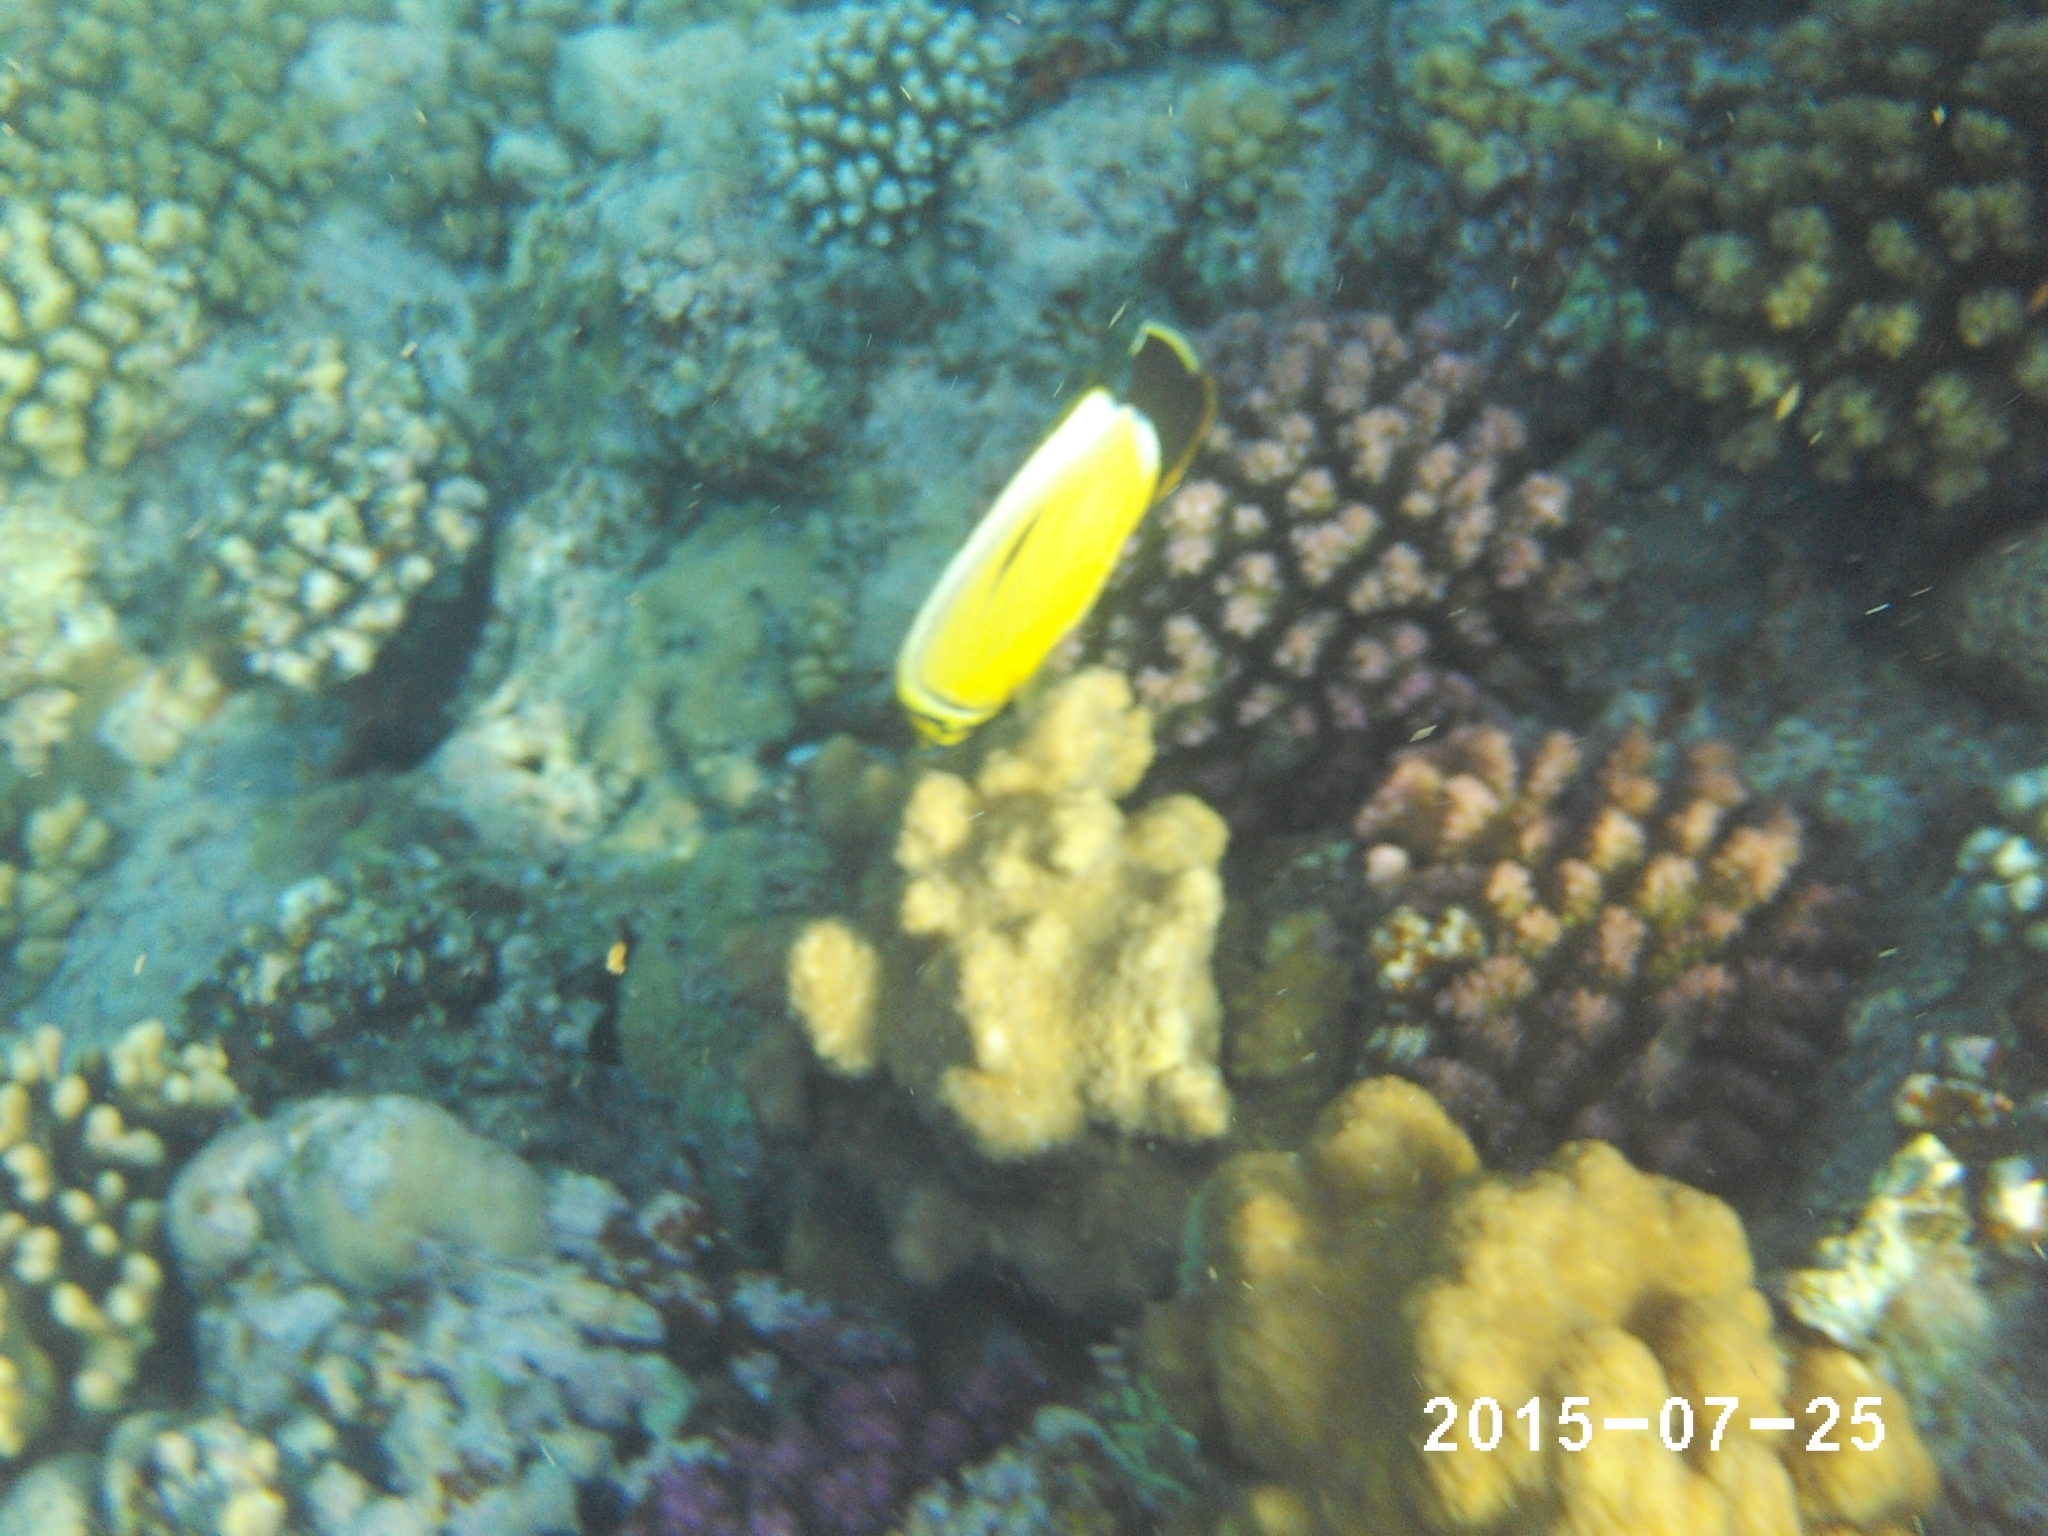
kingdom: Animalia
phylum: Chordata
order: Perciformes
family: Chaetodontidae
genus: Chaetodon
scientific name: Chaetodon austriacus
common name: Exquisite butterflyfish
